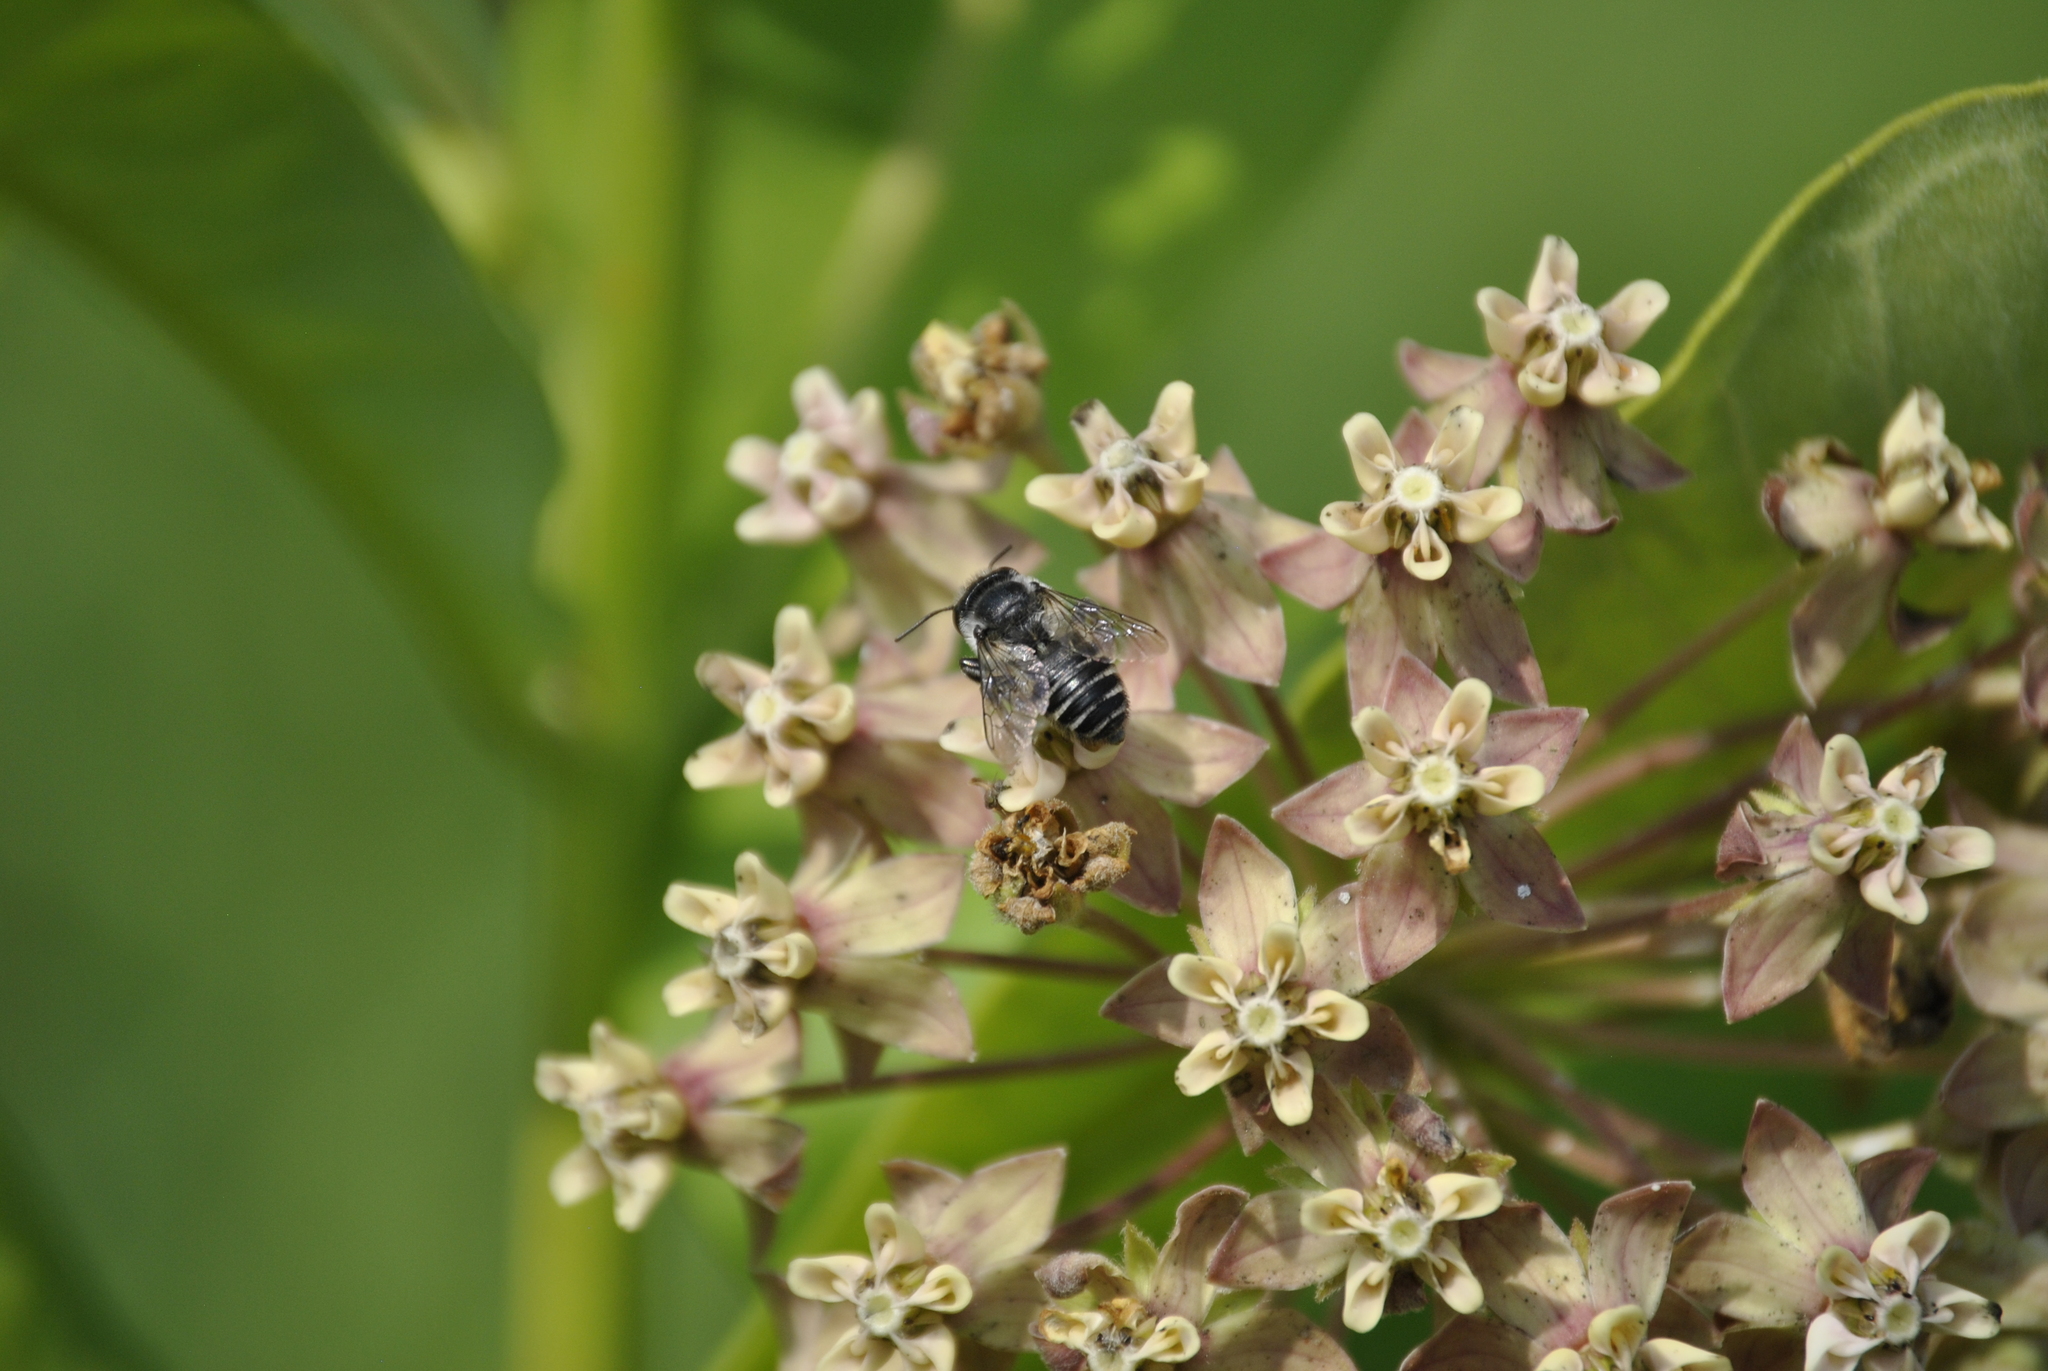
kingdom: Plantae
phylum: Tracheophyta
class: Magnoliopsida
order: Gentianales
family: Apocynaceae
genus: Asclepias
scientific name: Asclepias syriaca
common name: Common milkweed
